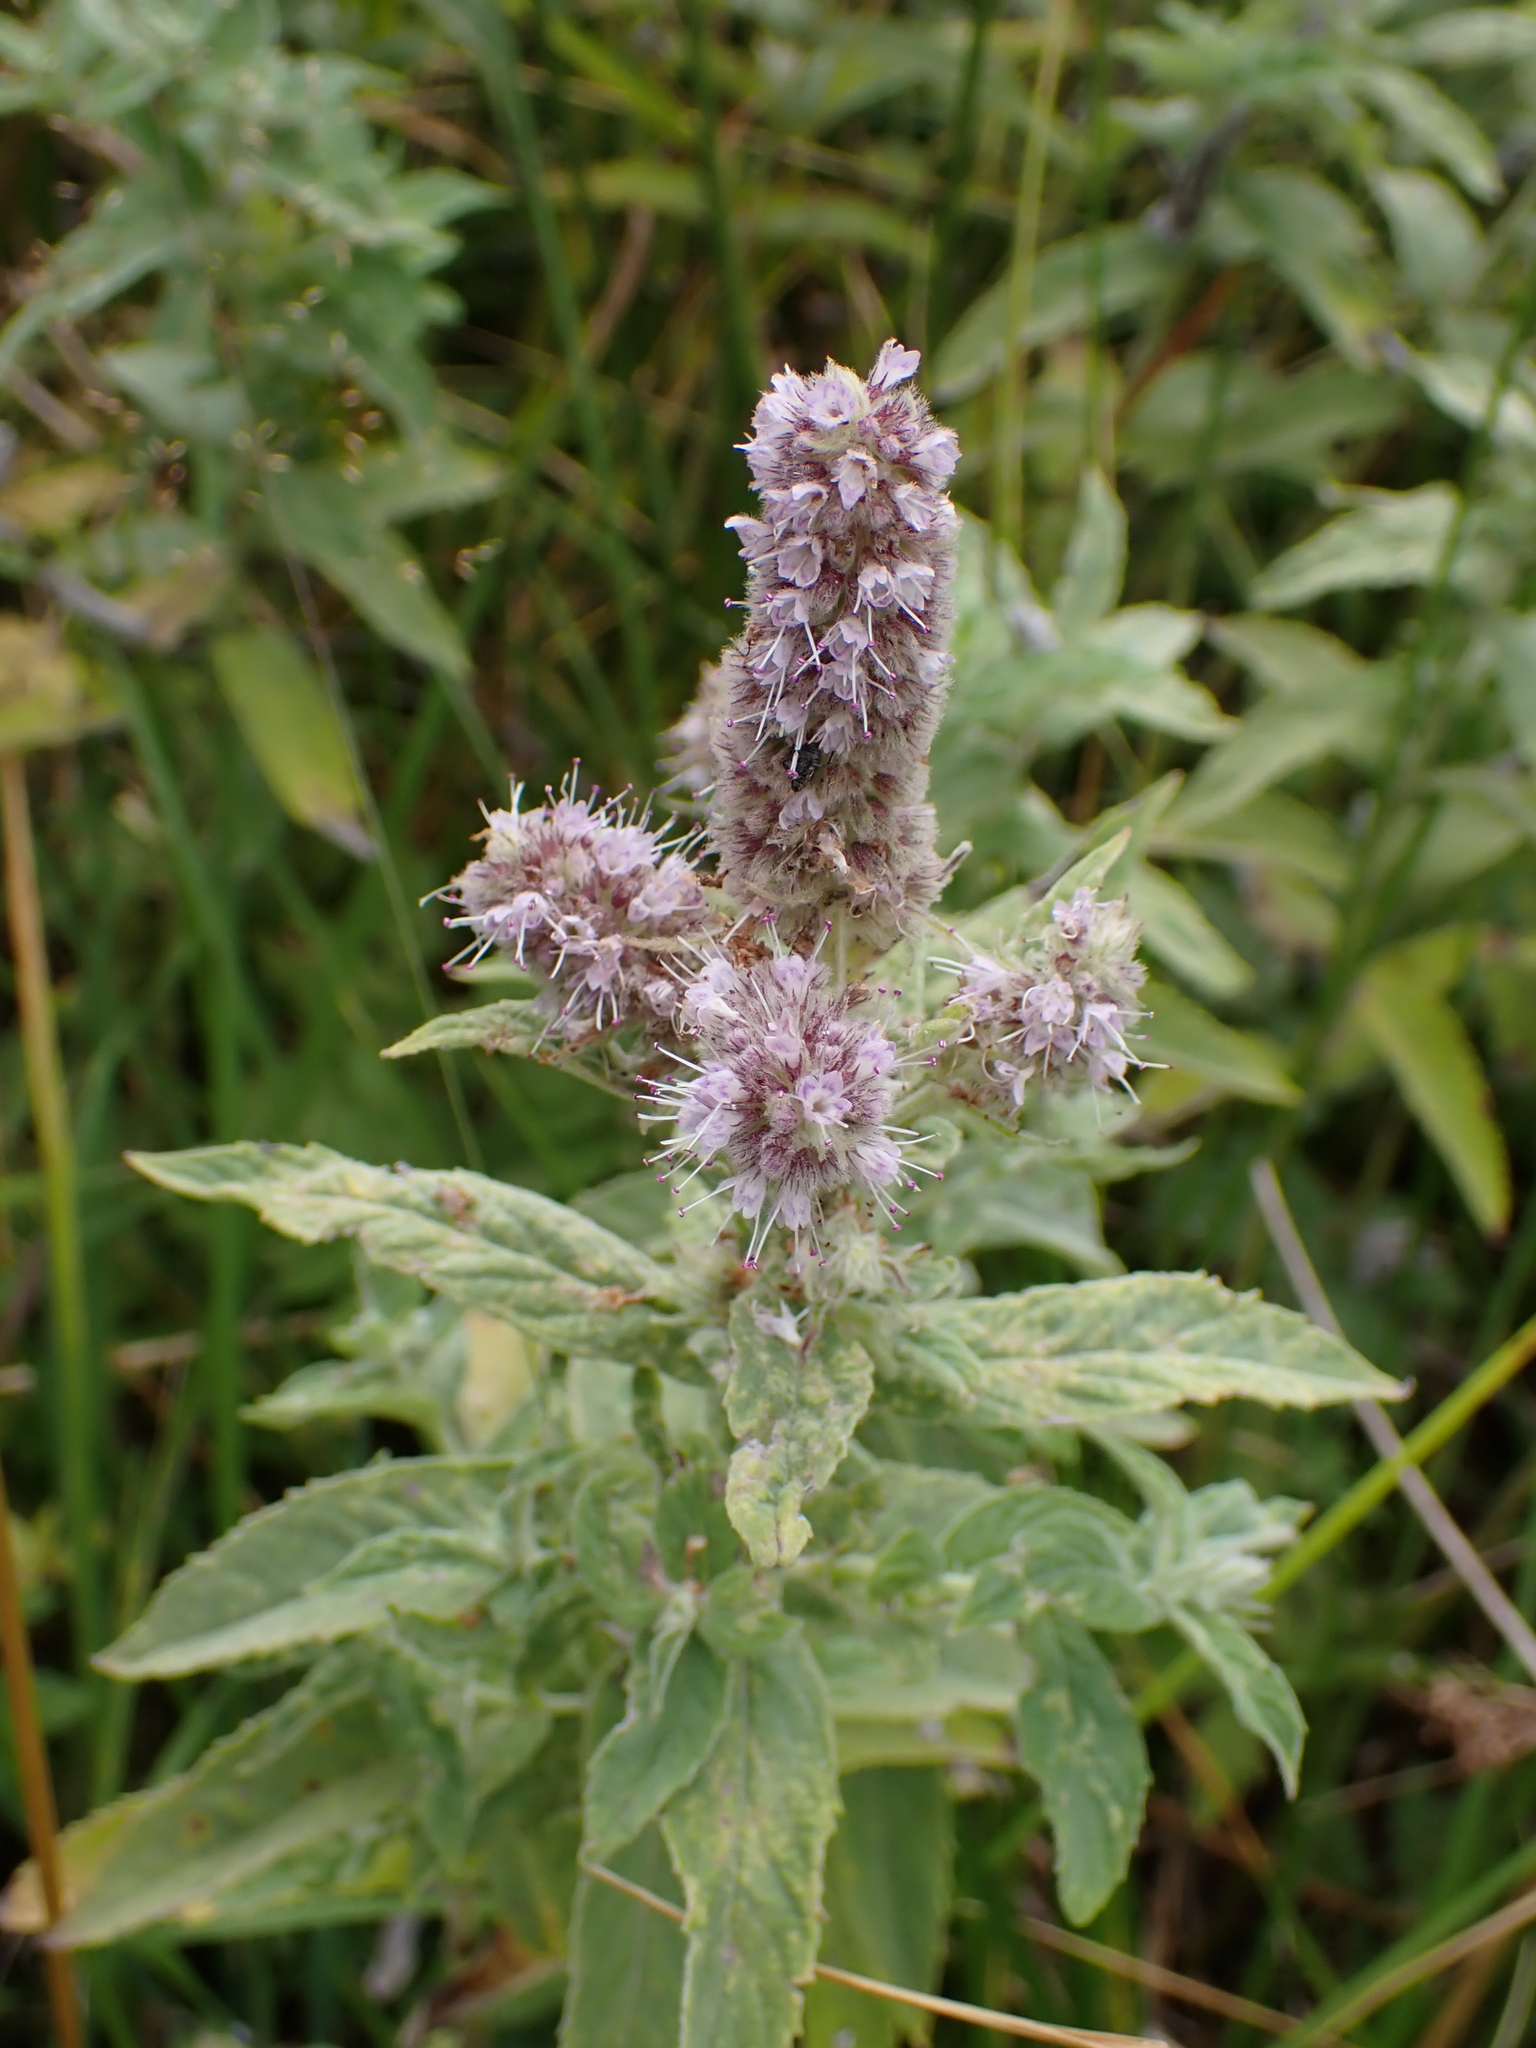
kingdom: Plantae
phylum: Tracheophyta
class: Magnoliopsida
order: Lamiales
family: Lamiaceae
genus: Mentha
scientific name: Mentha longifolia
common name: Horse mint
